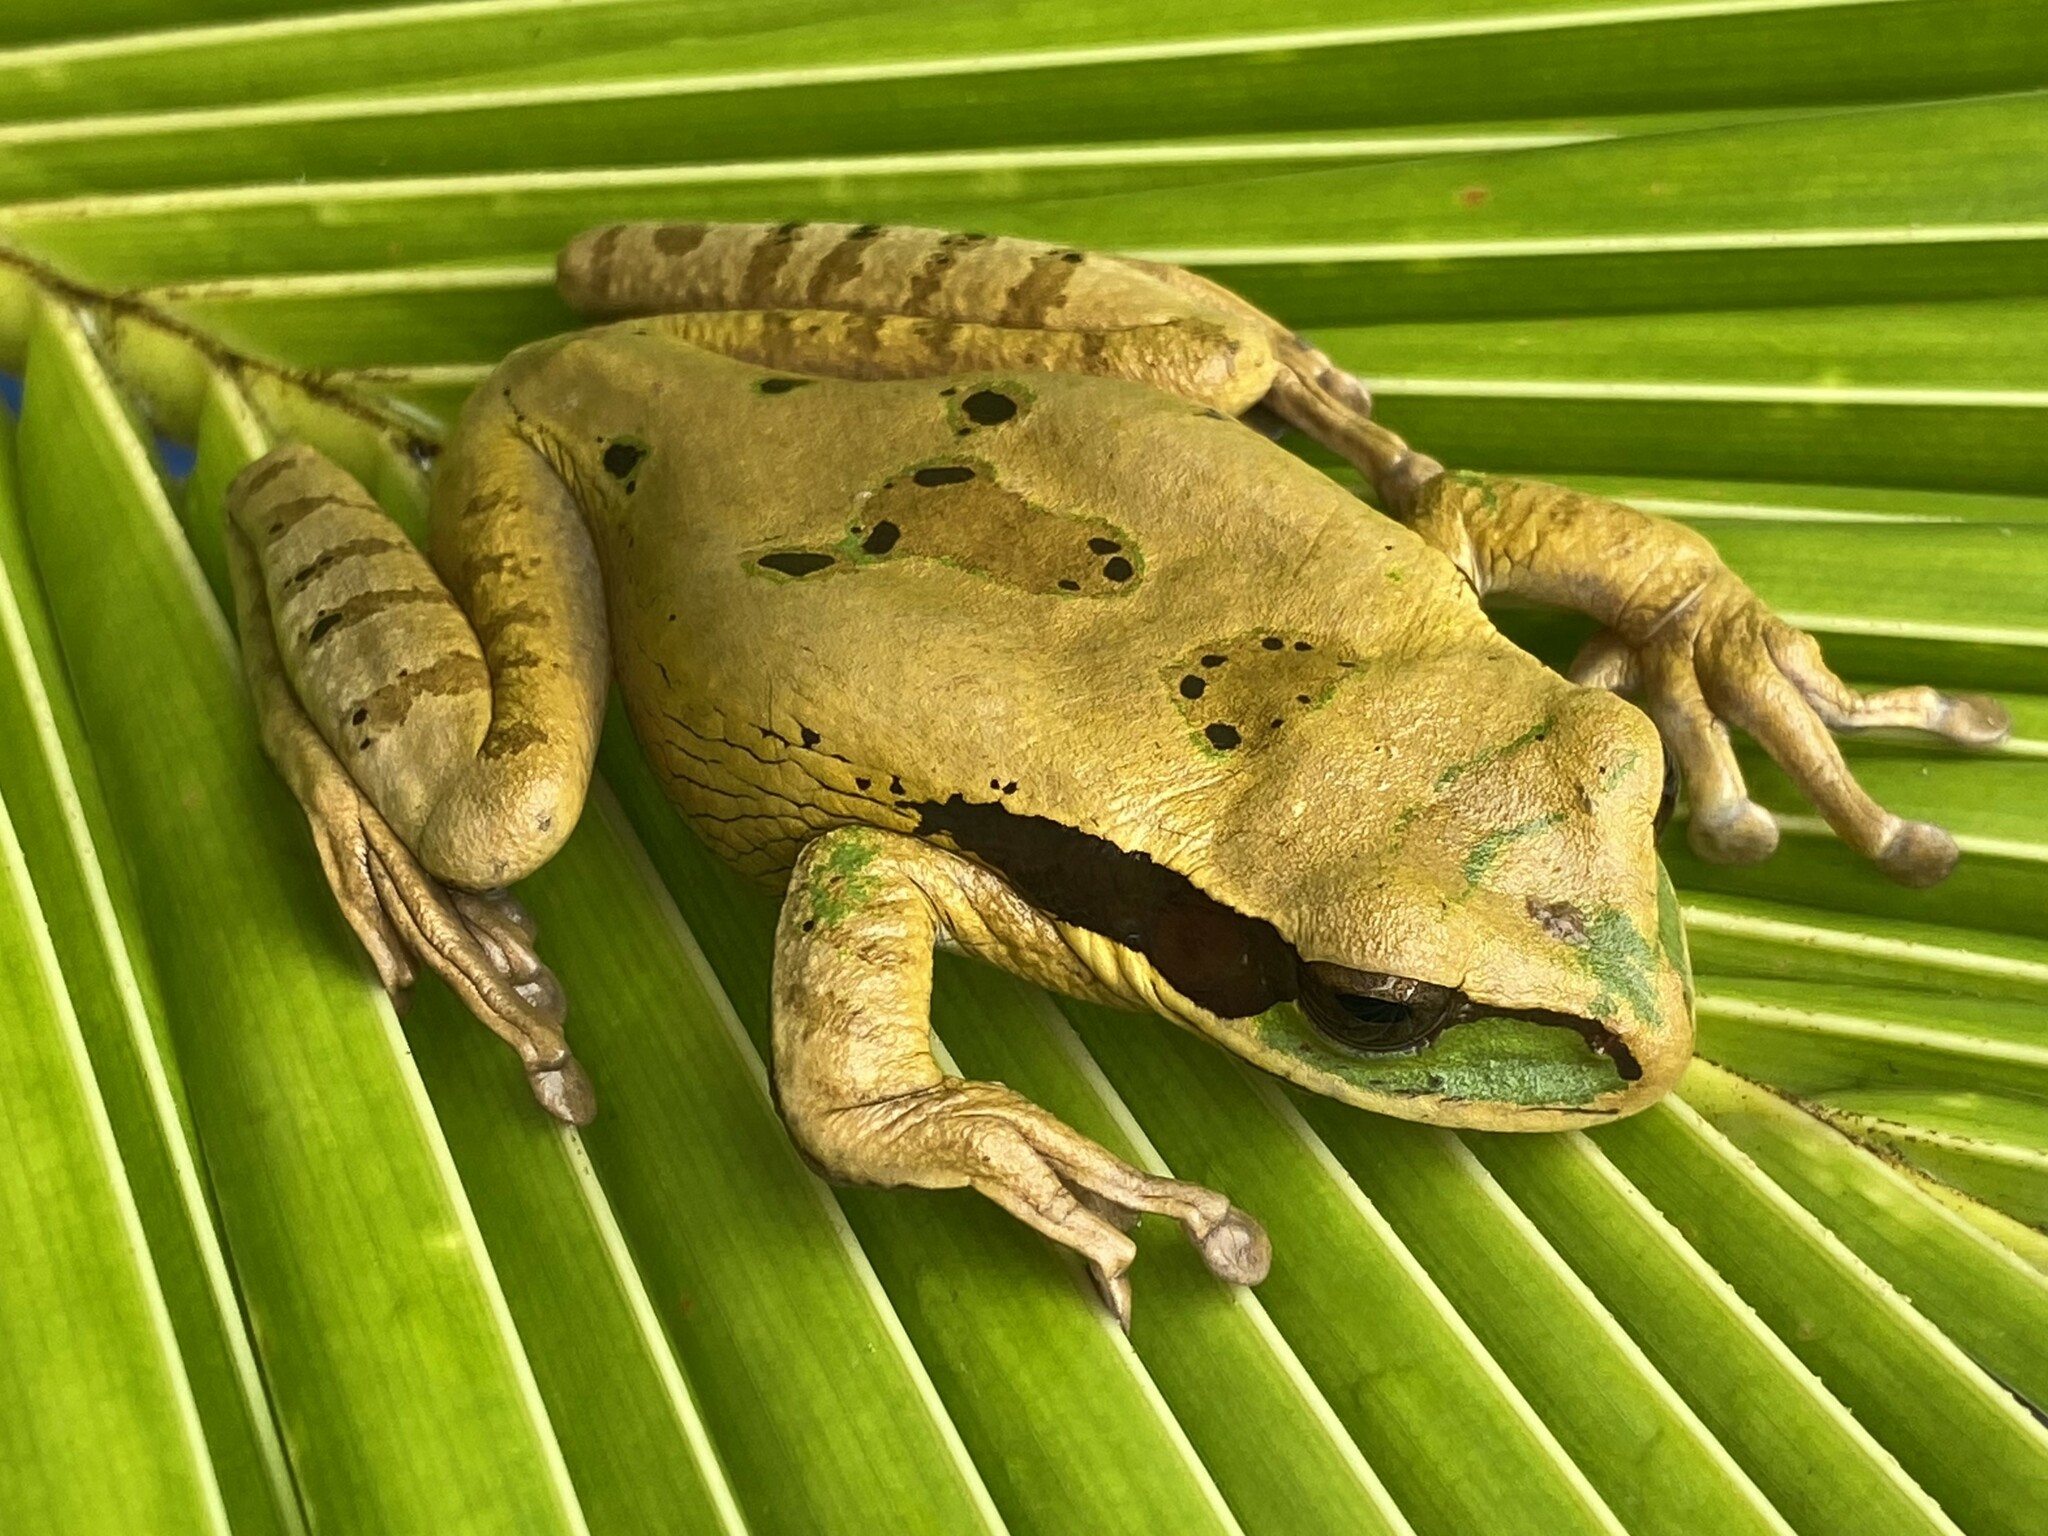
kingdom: Animalia
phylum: Chordata
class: Amphibia
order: Anura
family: Hylidae
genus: Smilisca
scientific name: Smilisca phaeota
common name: Central american smilisca
